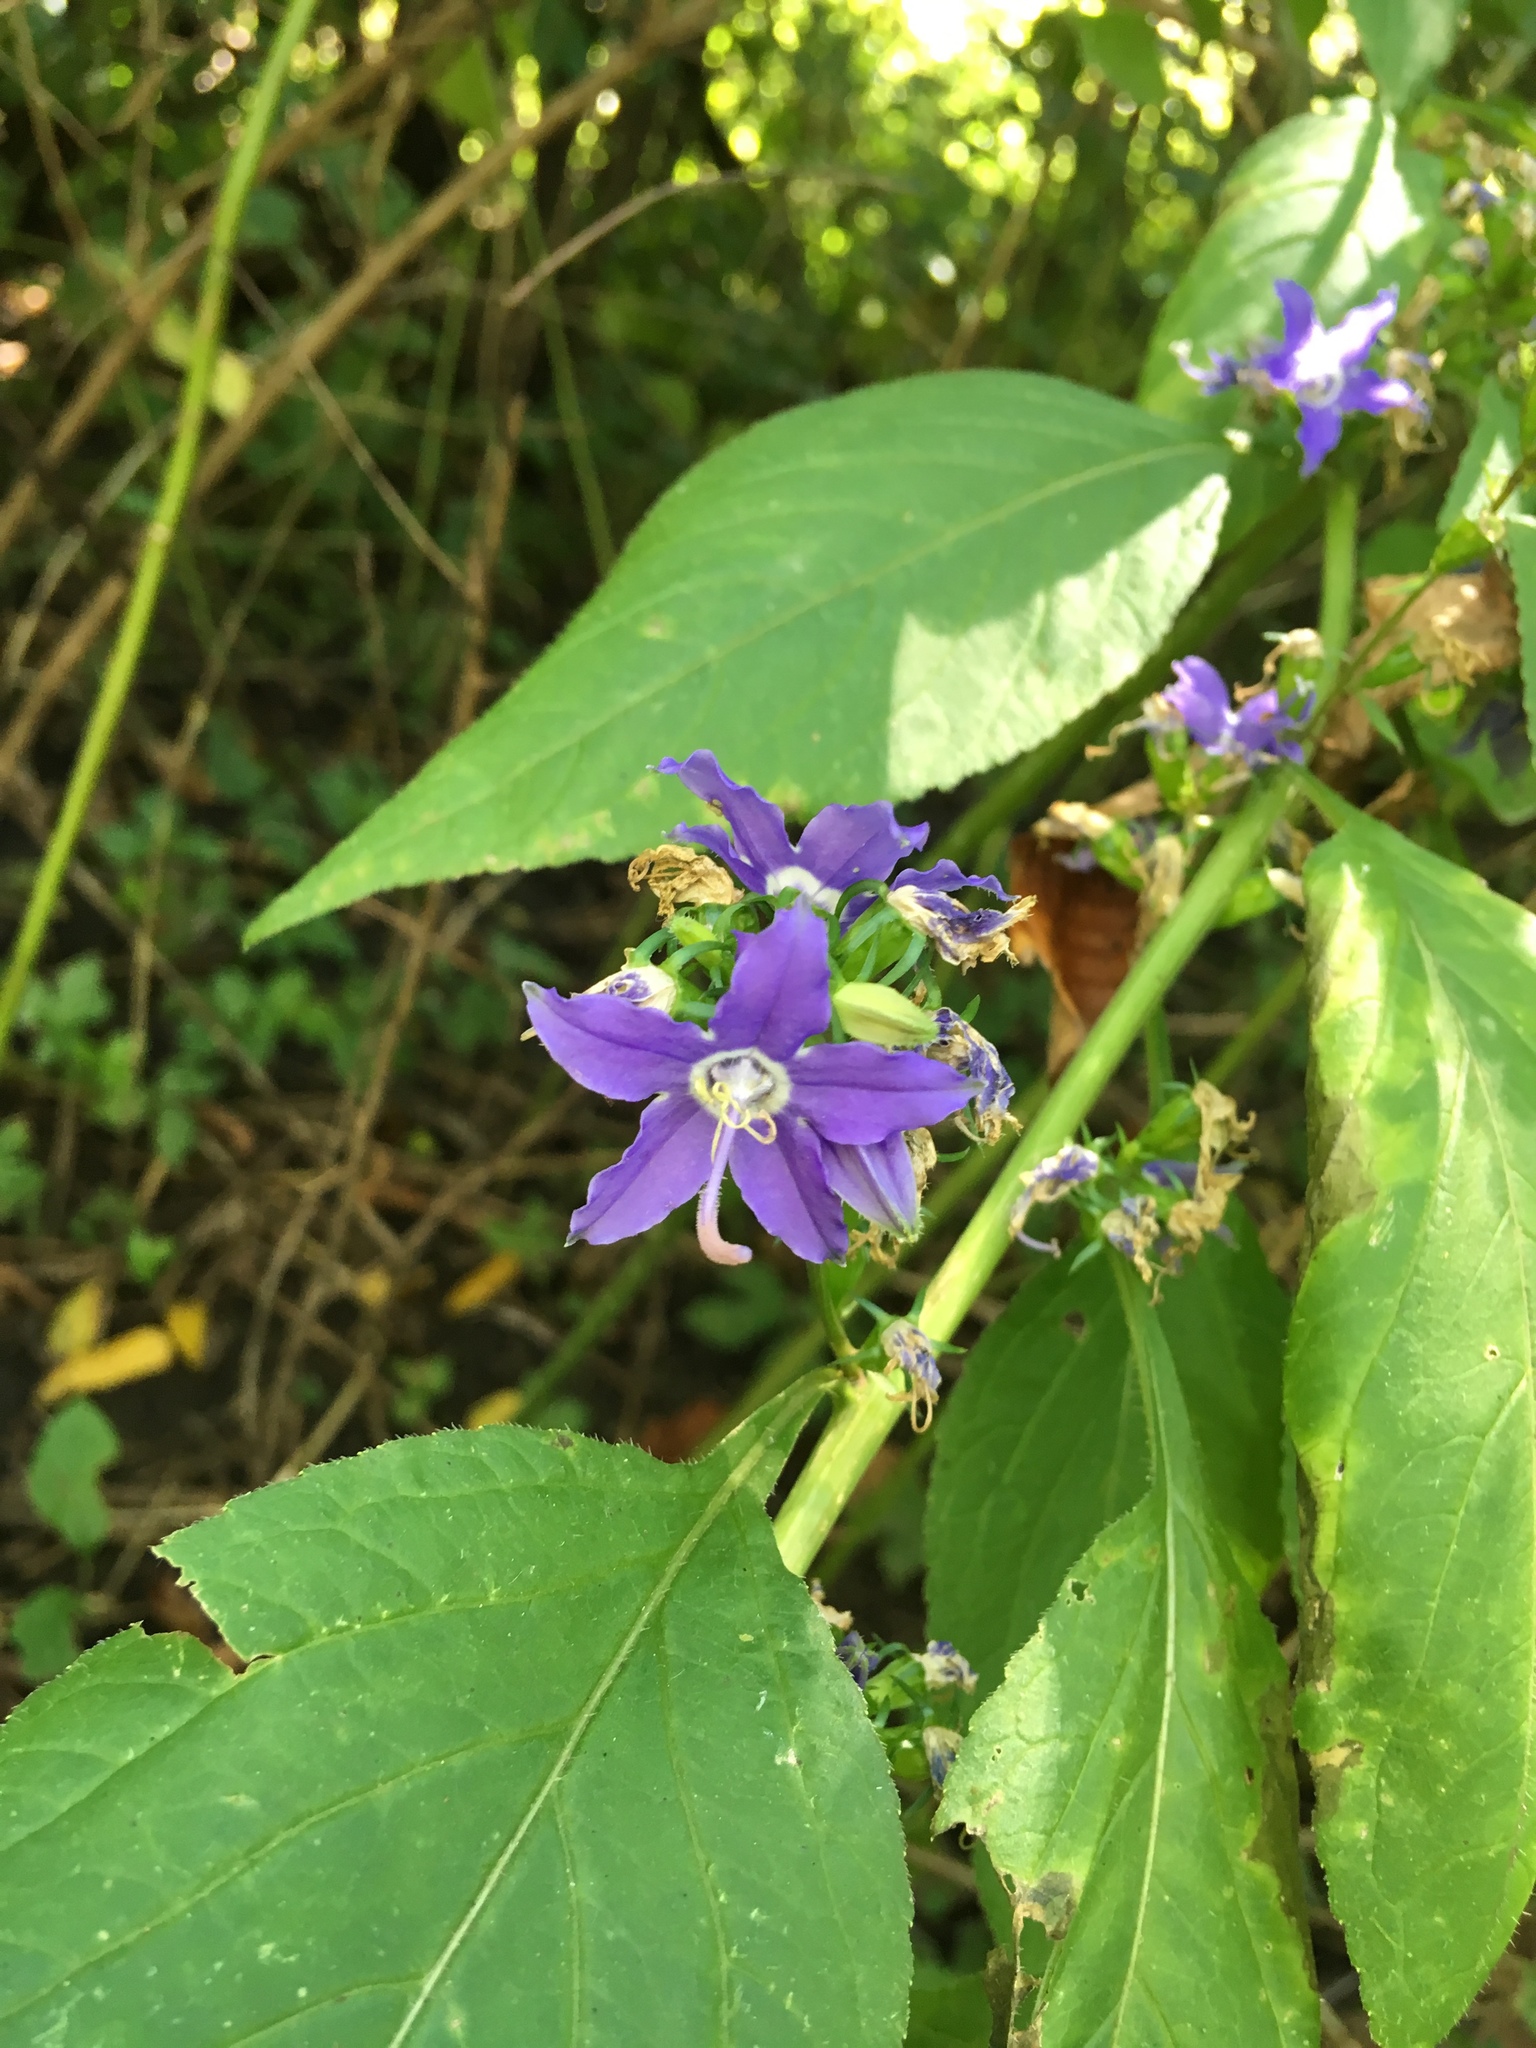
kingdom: Plantae
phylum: Tracheophyta
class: Magnoliopsida
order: Asterales
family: Campanulaceae
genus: Campanulastrum
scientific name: Campanulastrum americanum
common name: American bellflower
